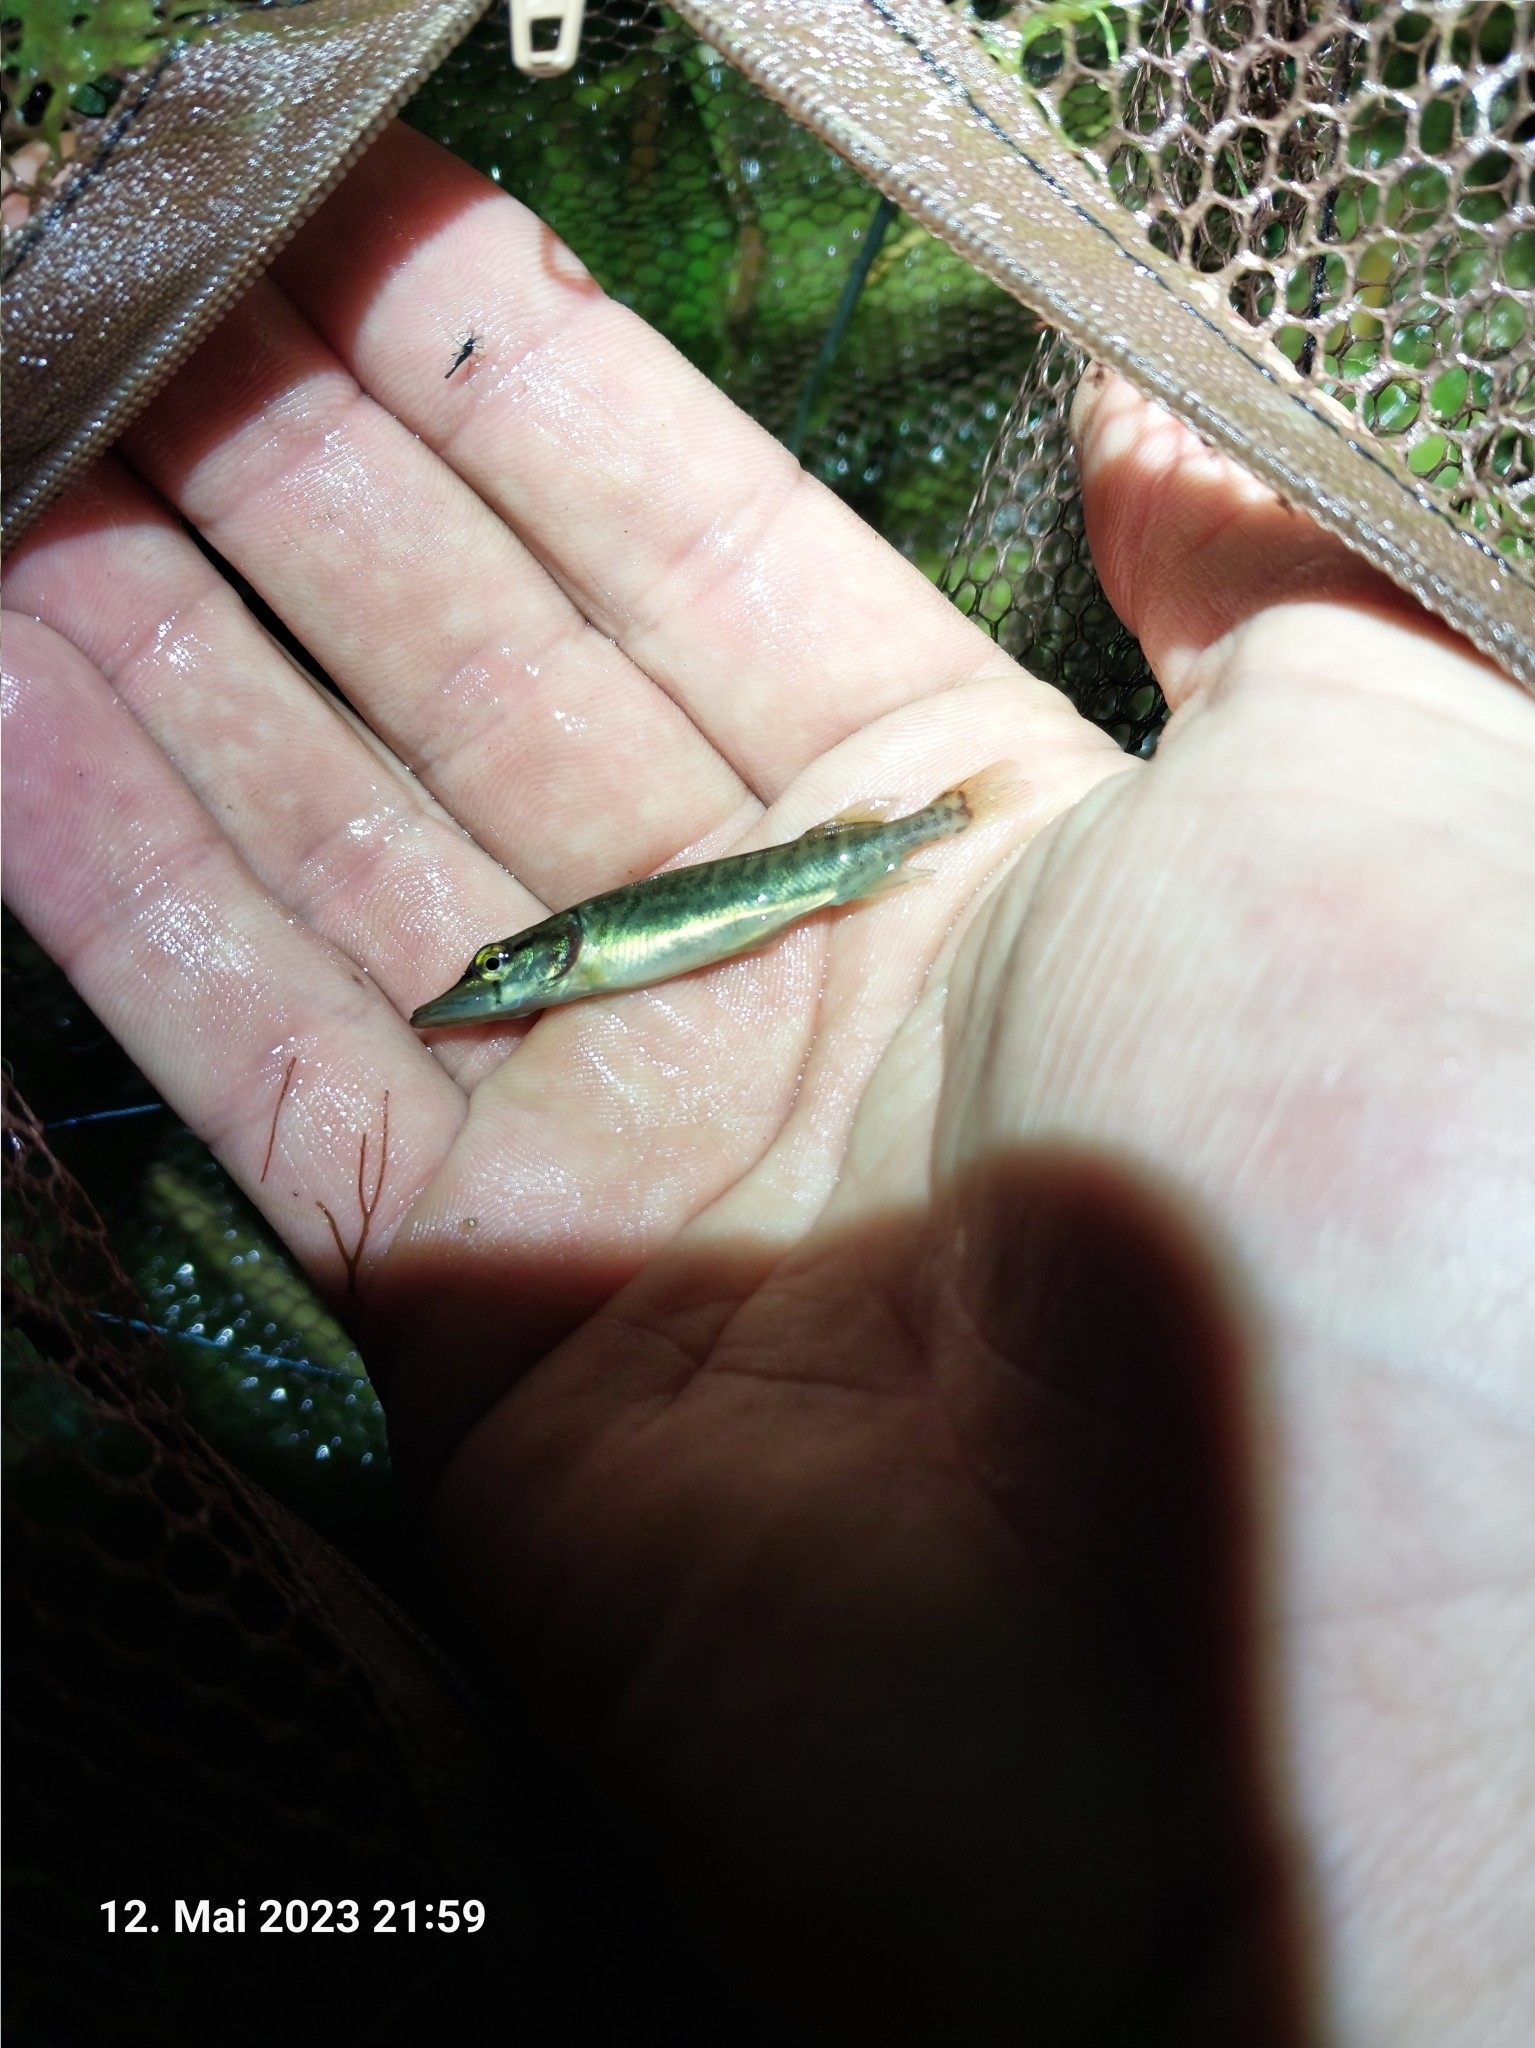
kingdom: Animalia
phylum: Chordata
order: Esociformes
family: Esocidae
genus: Esox
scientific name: Esox lucius
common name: Northern pike
